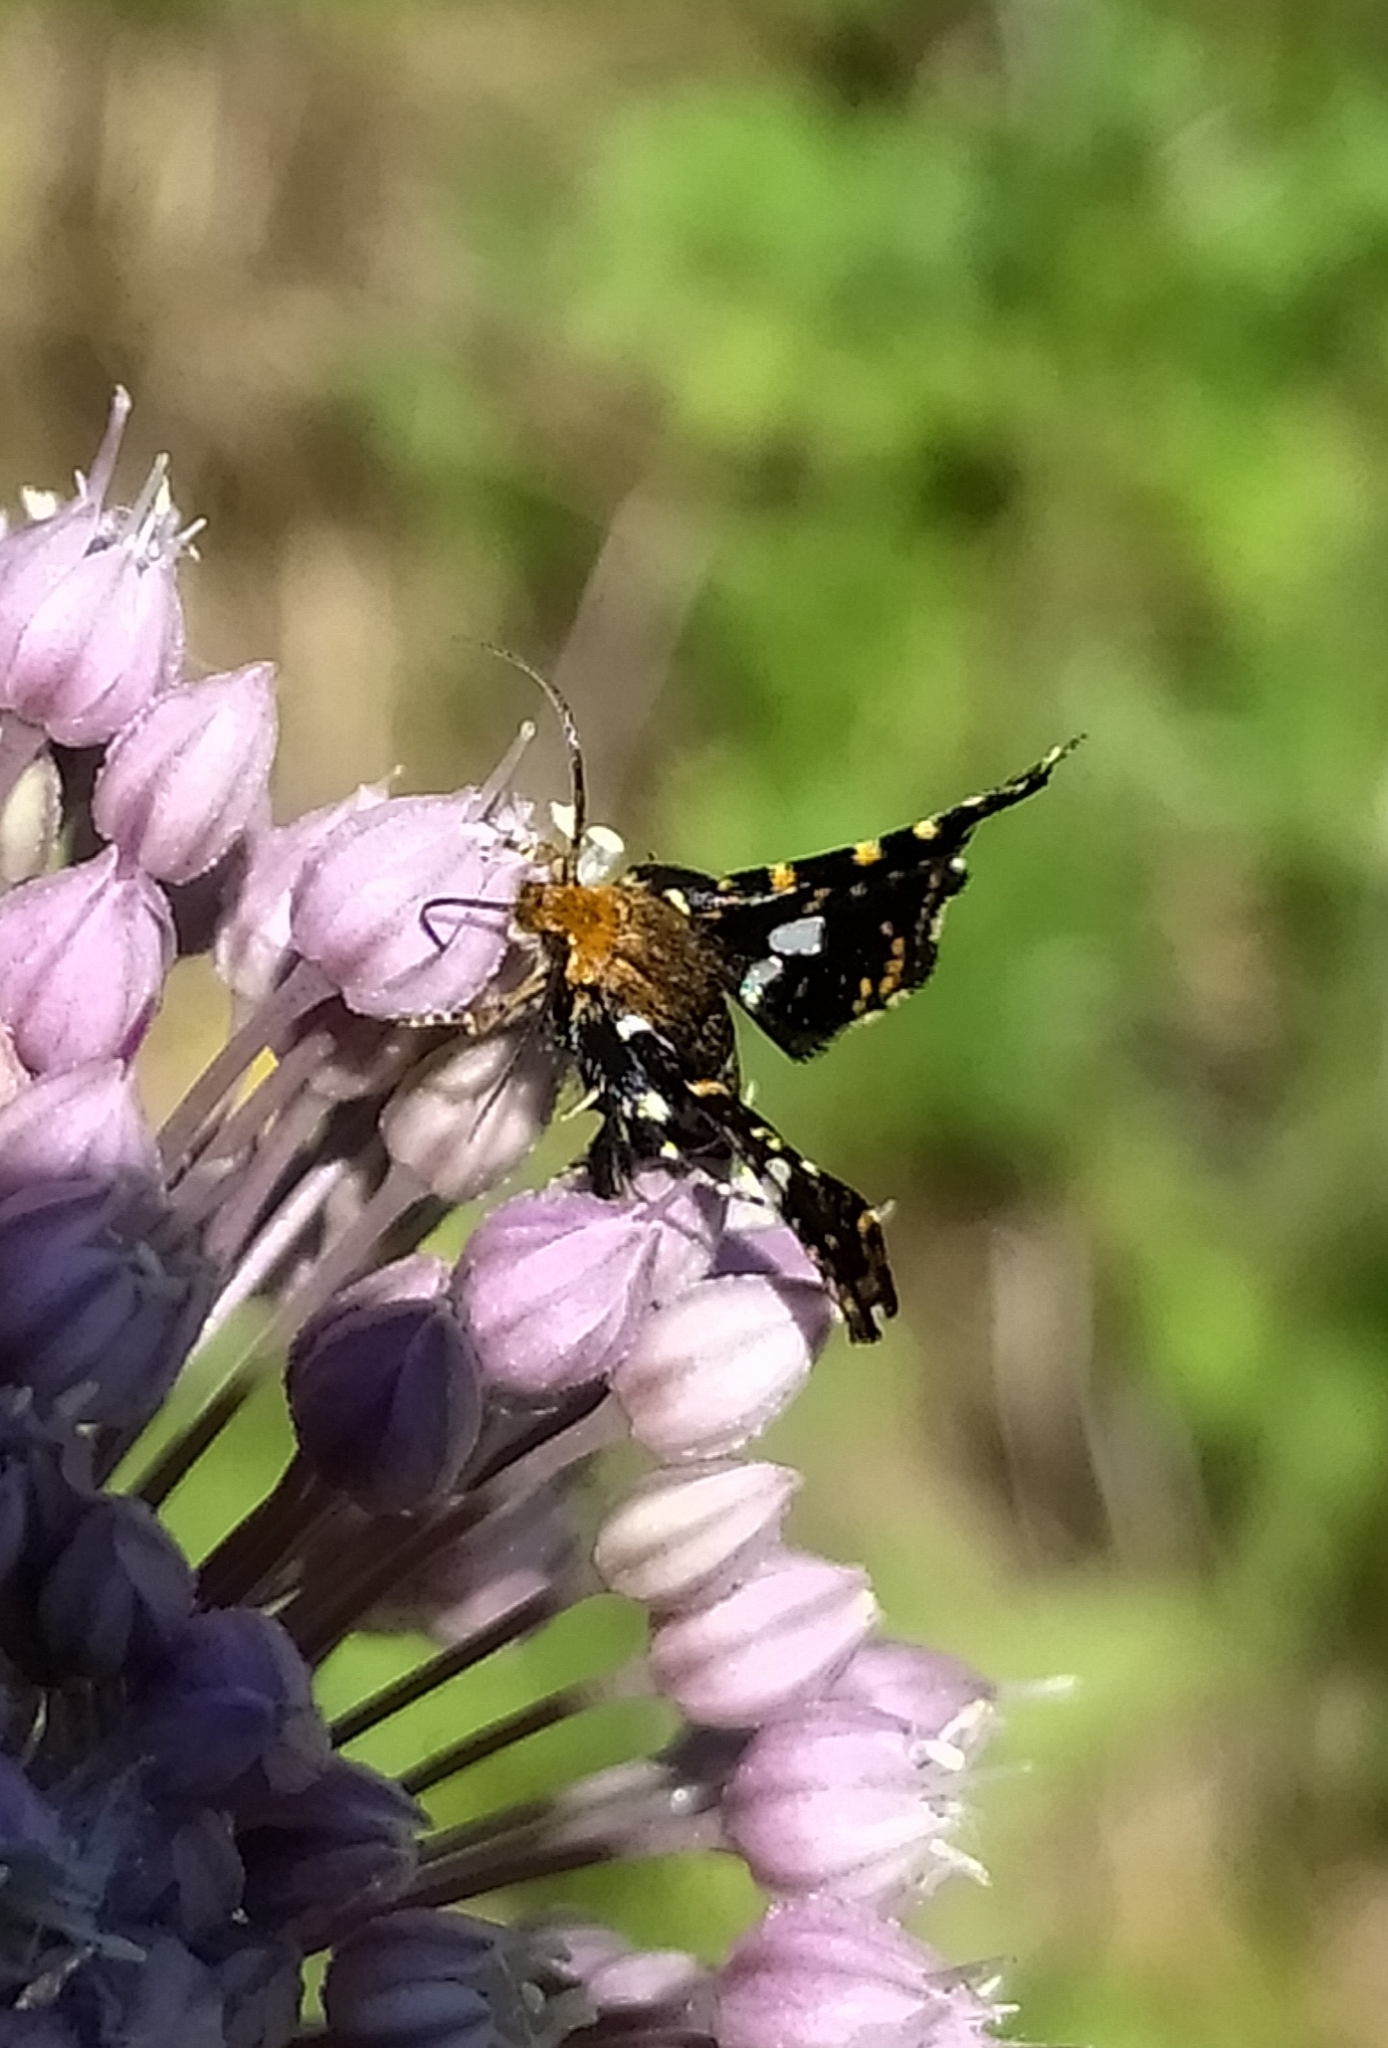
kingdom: Animalia
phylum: Arthropoda
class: Insecta
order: Lepidoptera
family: Thyrididae
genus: Thyris
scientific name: Thyris fenestrella
